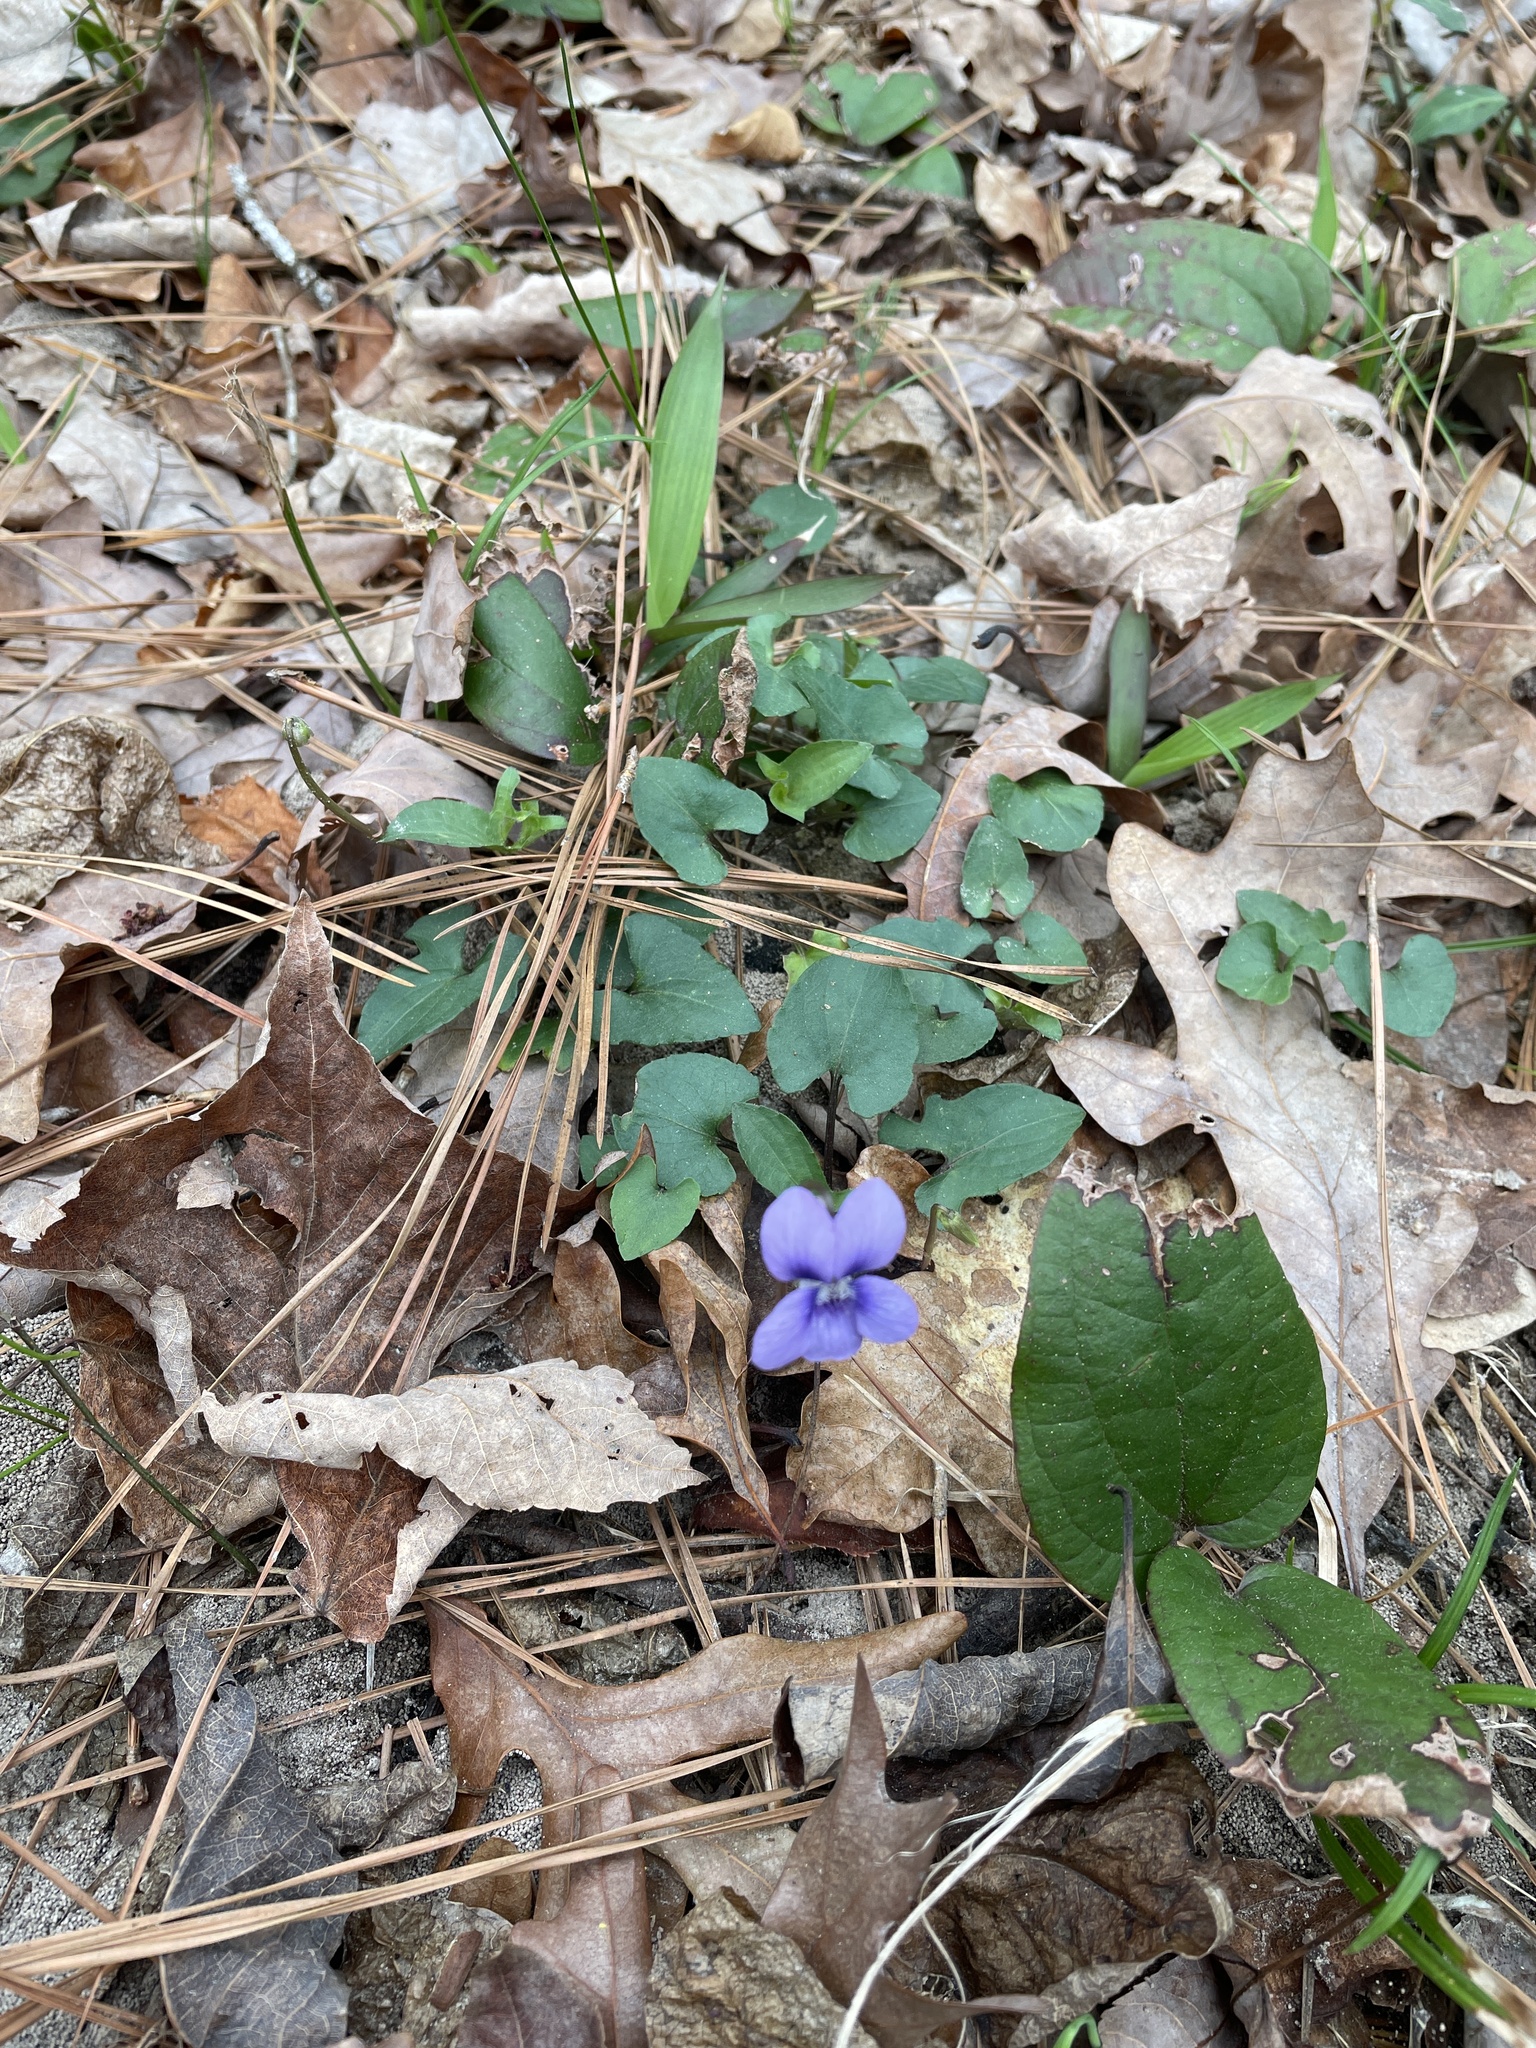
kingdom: Plantae
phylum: Tracheophyta
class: Magnoliopsida
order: Malpighiales
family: Violaceae
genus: Viola
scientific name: Viola sororia
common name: Dooryard violet
